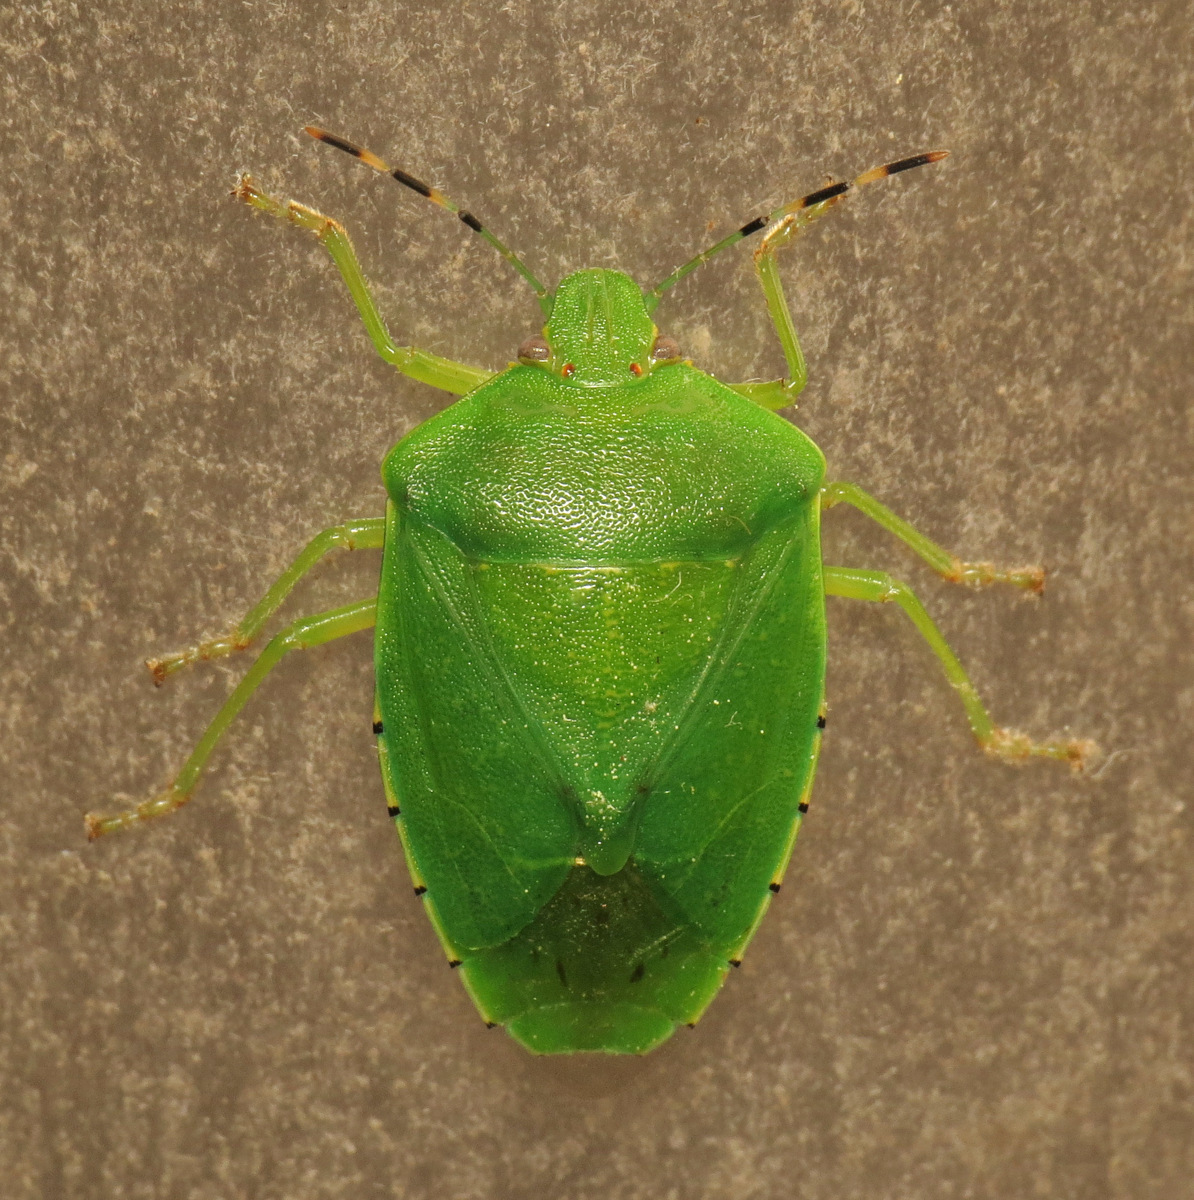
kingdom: Animalia
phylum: Arthropoda
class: Insecta
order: Hemiptera
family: Pentatomidae
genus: Chinavia
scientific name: Chinavia hilaris
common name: Green stink bug
